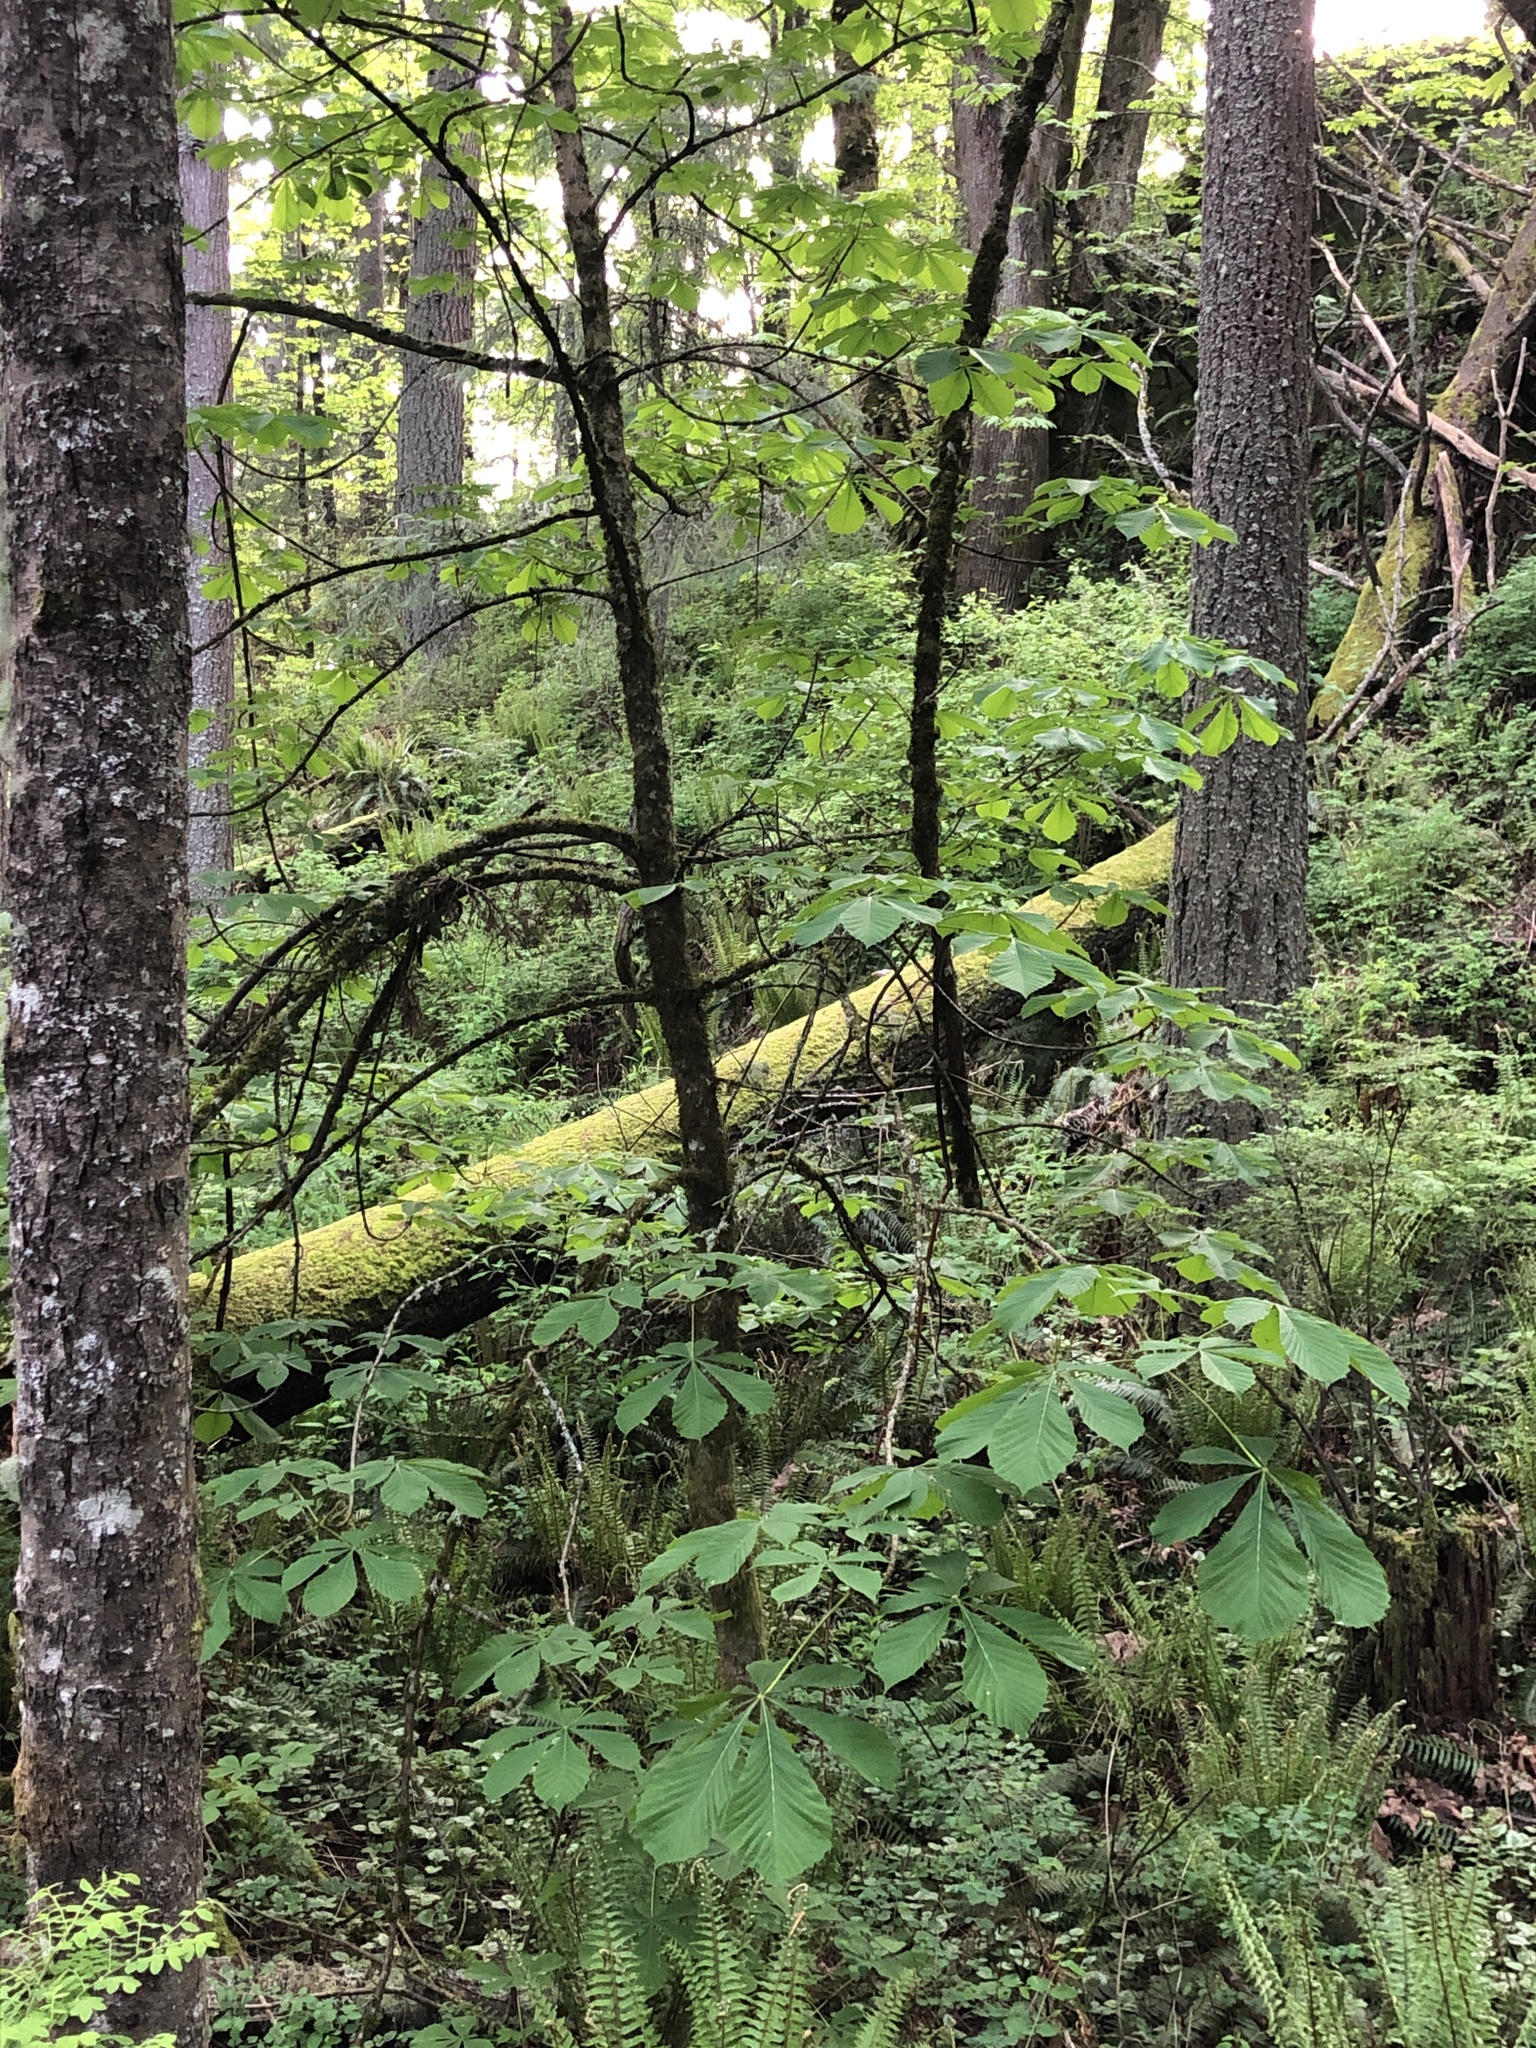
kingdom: Plantae
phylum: Tracheophyta
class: Magnoliopsida
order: Sapindales
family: Sapindaceae
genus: Aesculus
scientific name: Aesculus hippocastanum
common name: Horse-chestnut
